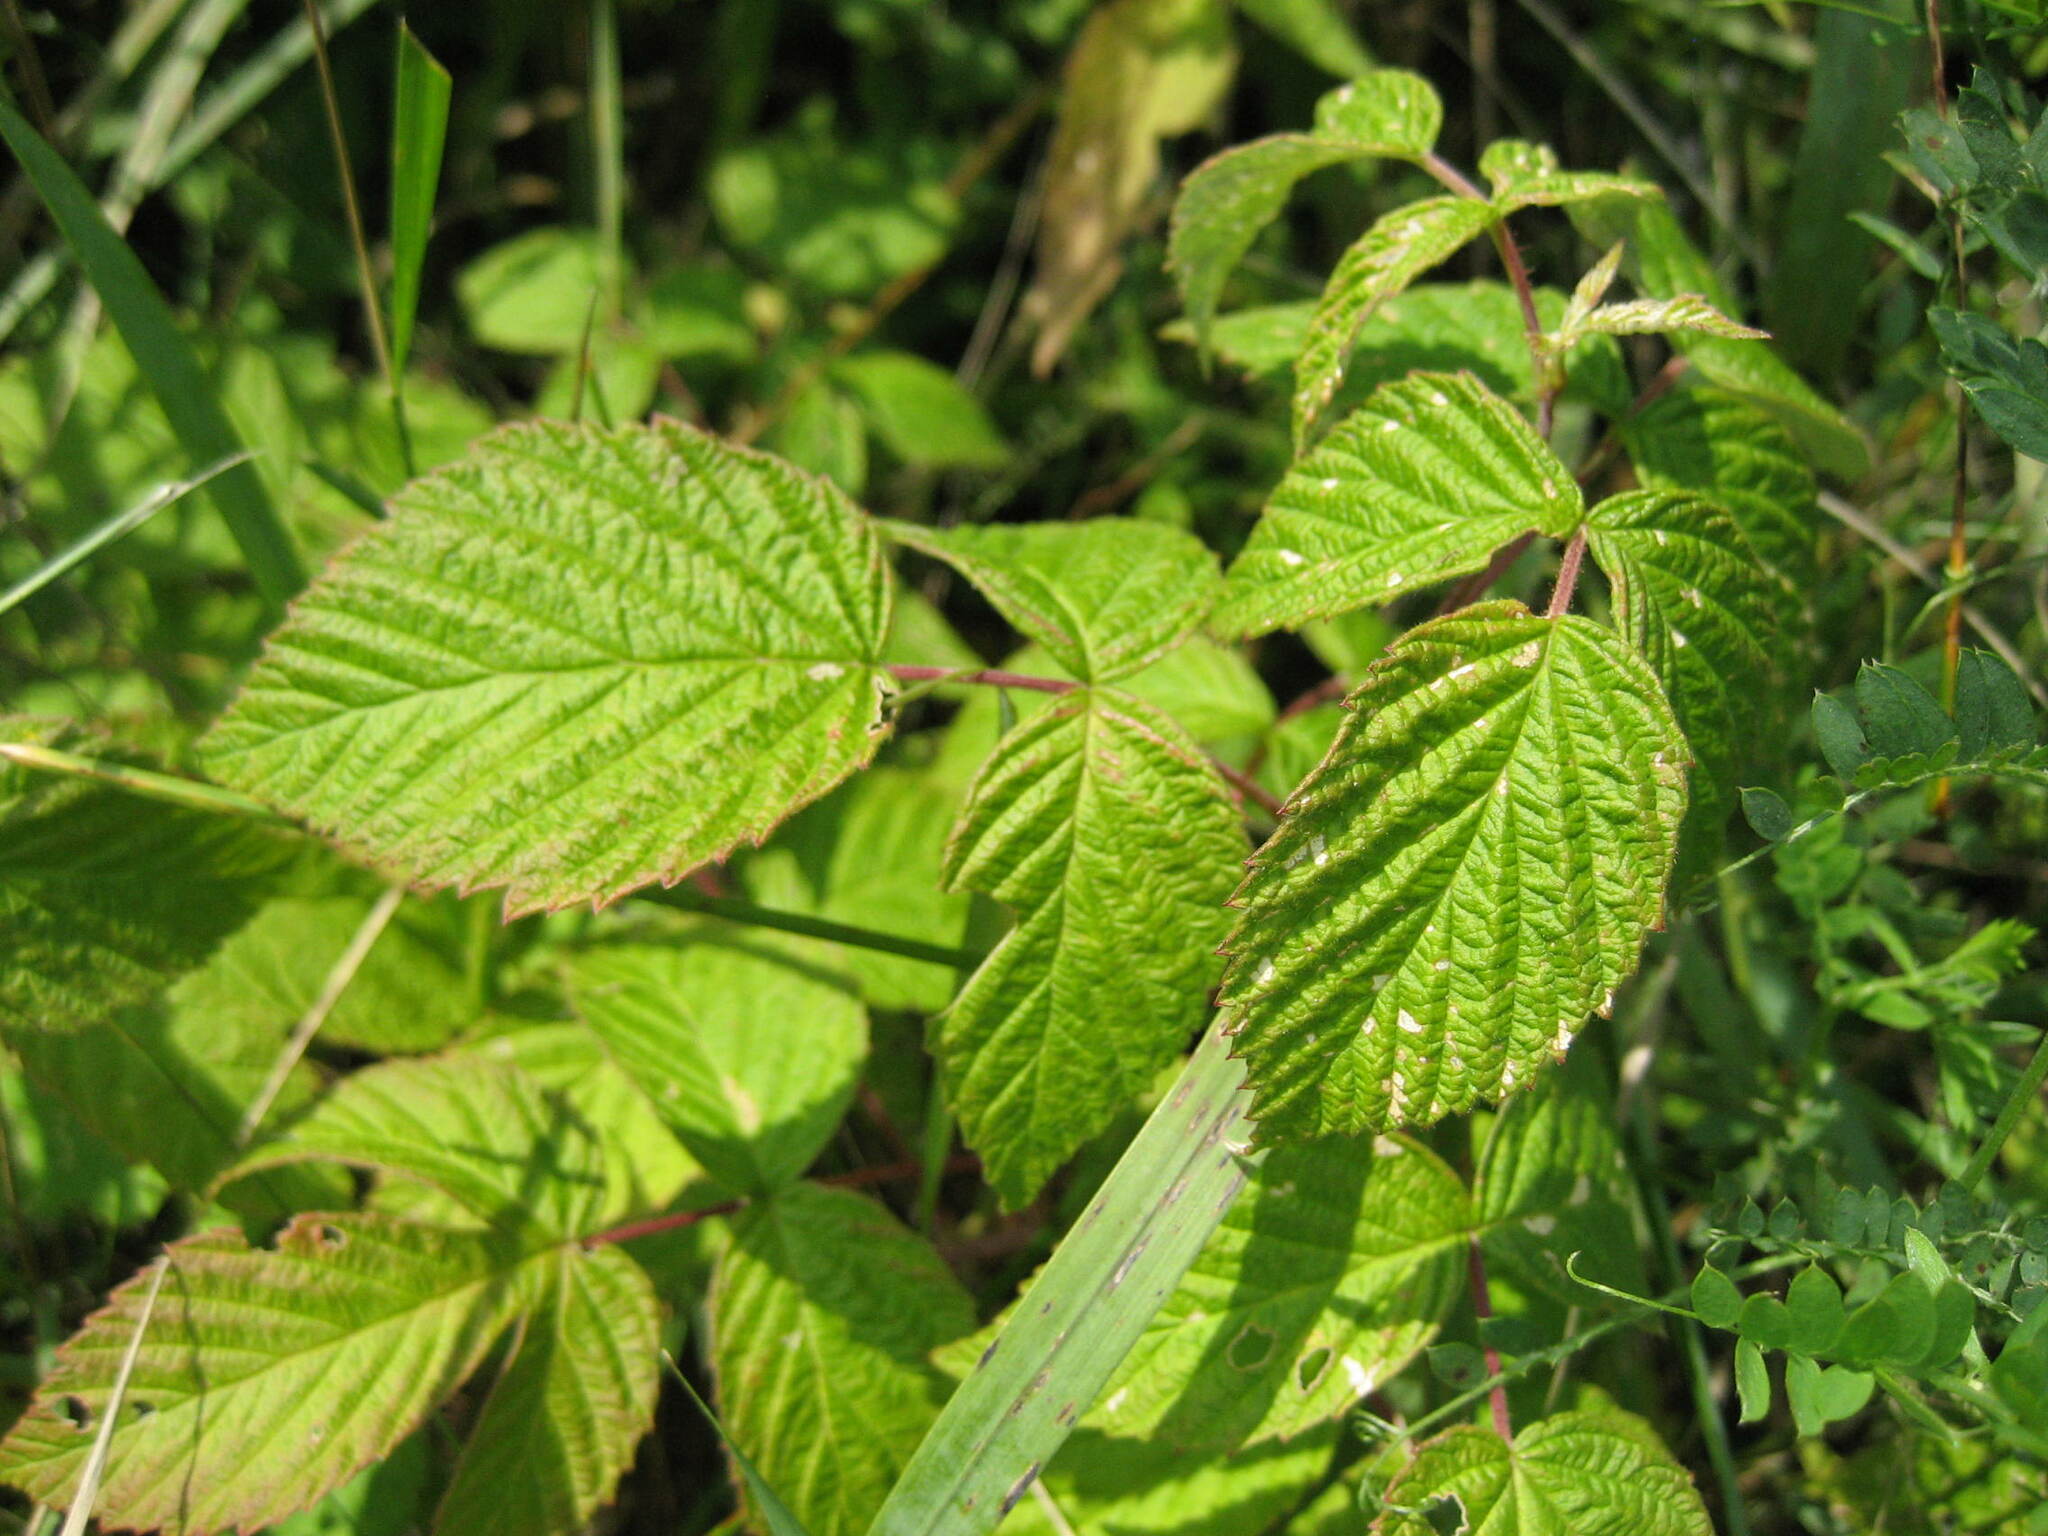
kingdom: Plantae
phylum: Tracheophyta
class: Magnoliopsida
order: Rosales
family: Rosaceae
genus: Rubus
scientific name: Rubus idaeus
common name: Raspberry
